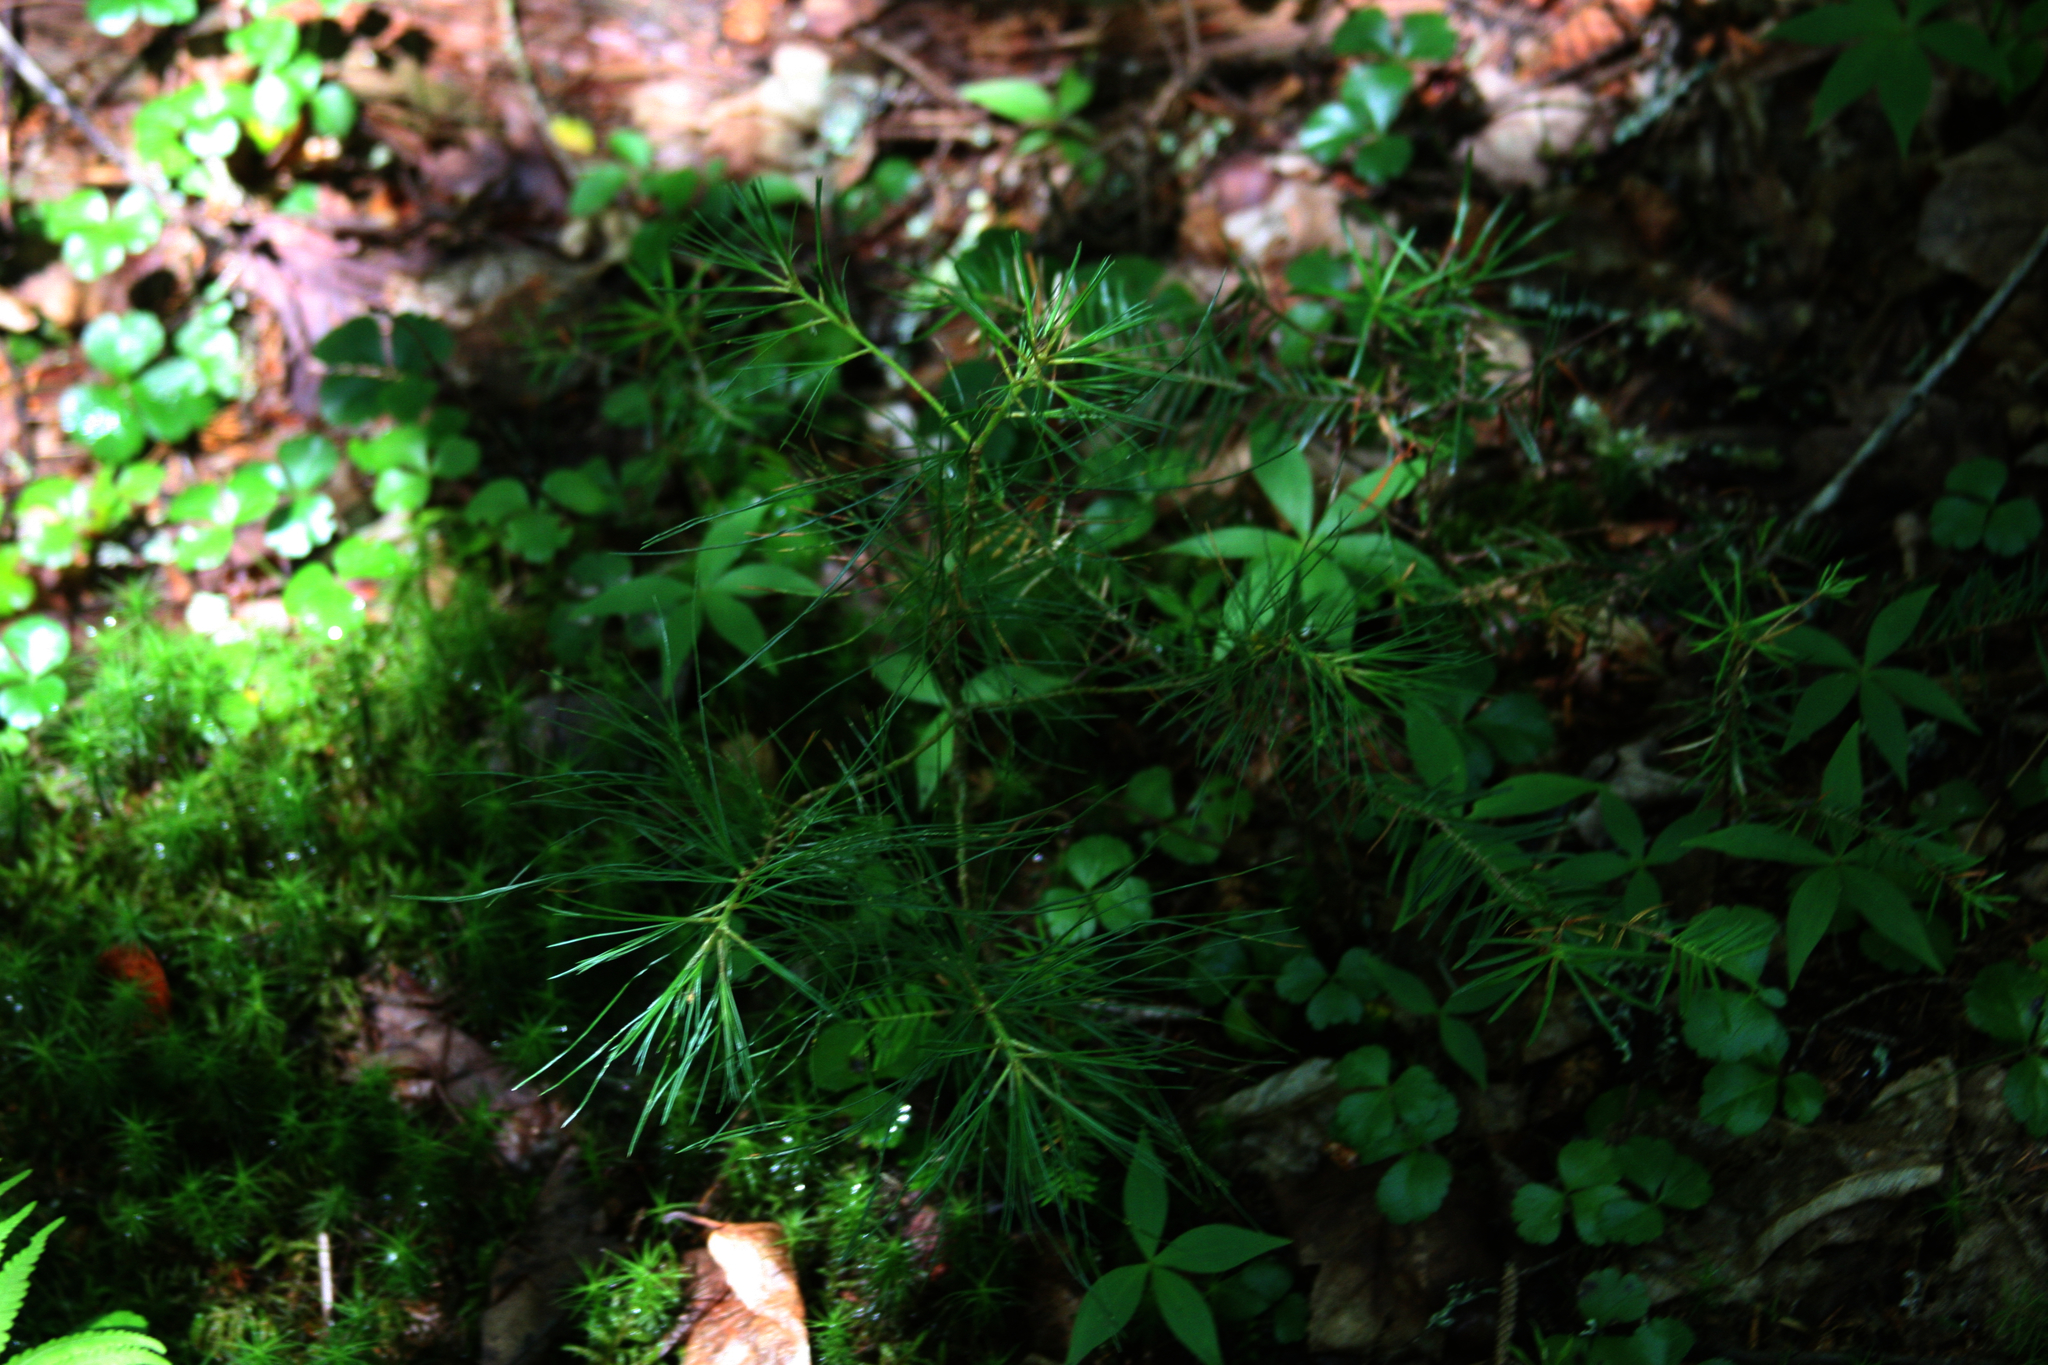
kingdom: Plantae
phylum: Tracheophyta
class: Pinopsida
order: Pinales
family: Pinaceae
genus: Pinus
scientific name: Pinus strobus
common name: Weymouth pine
